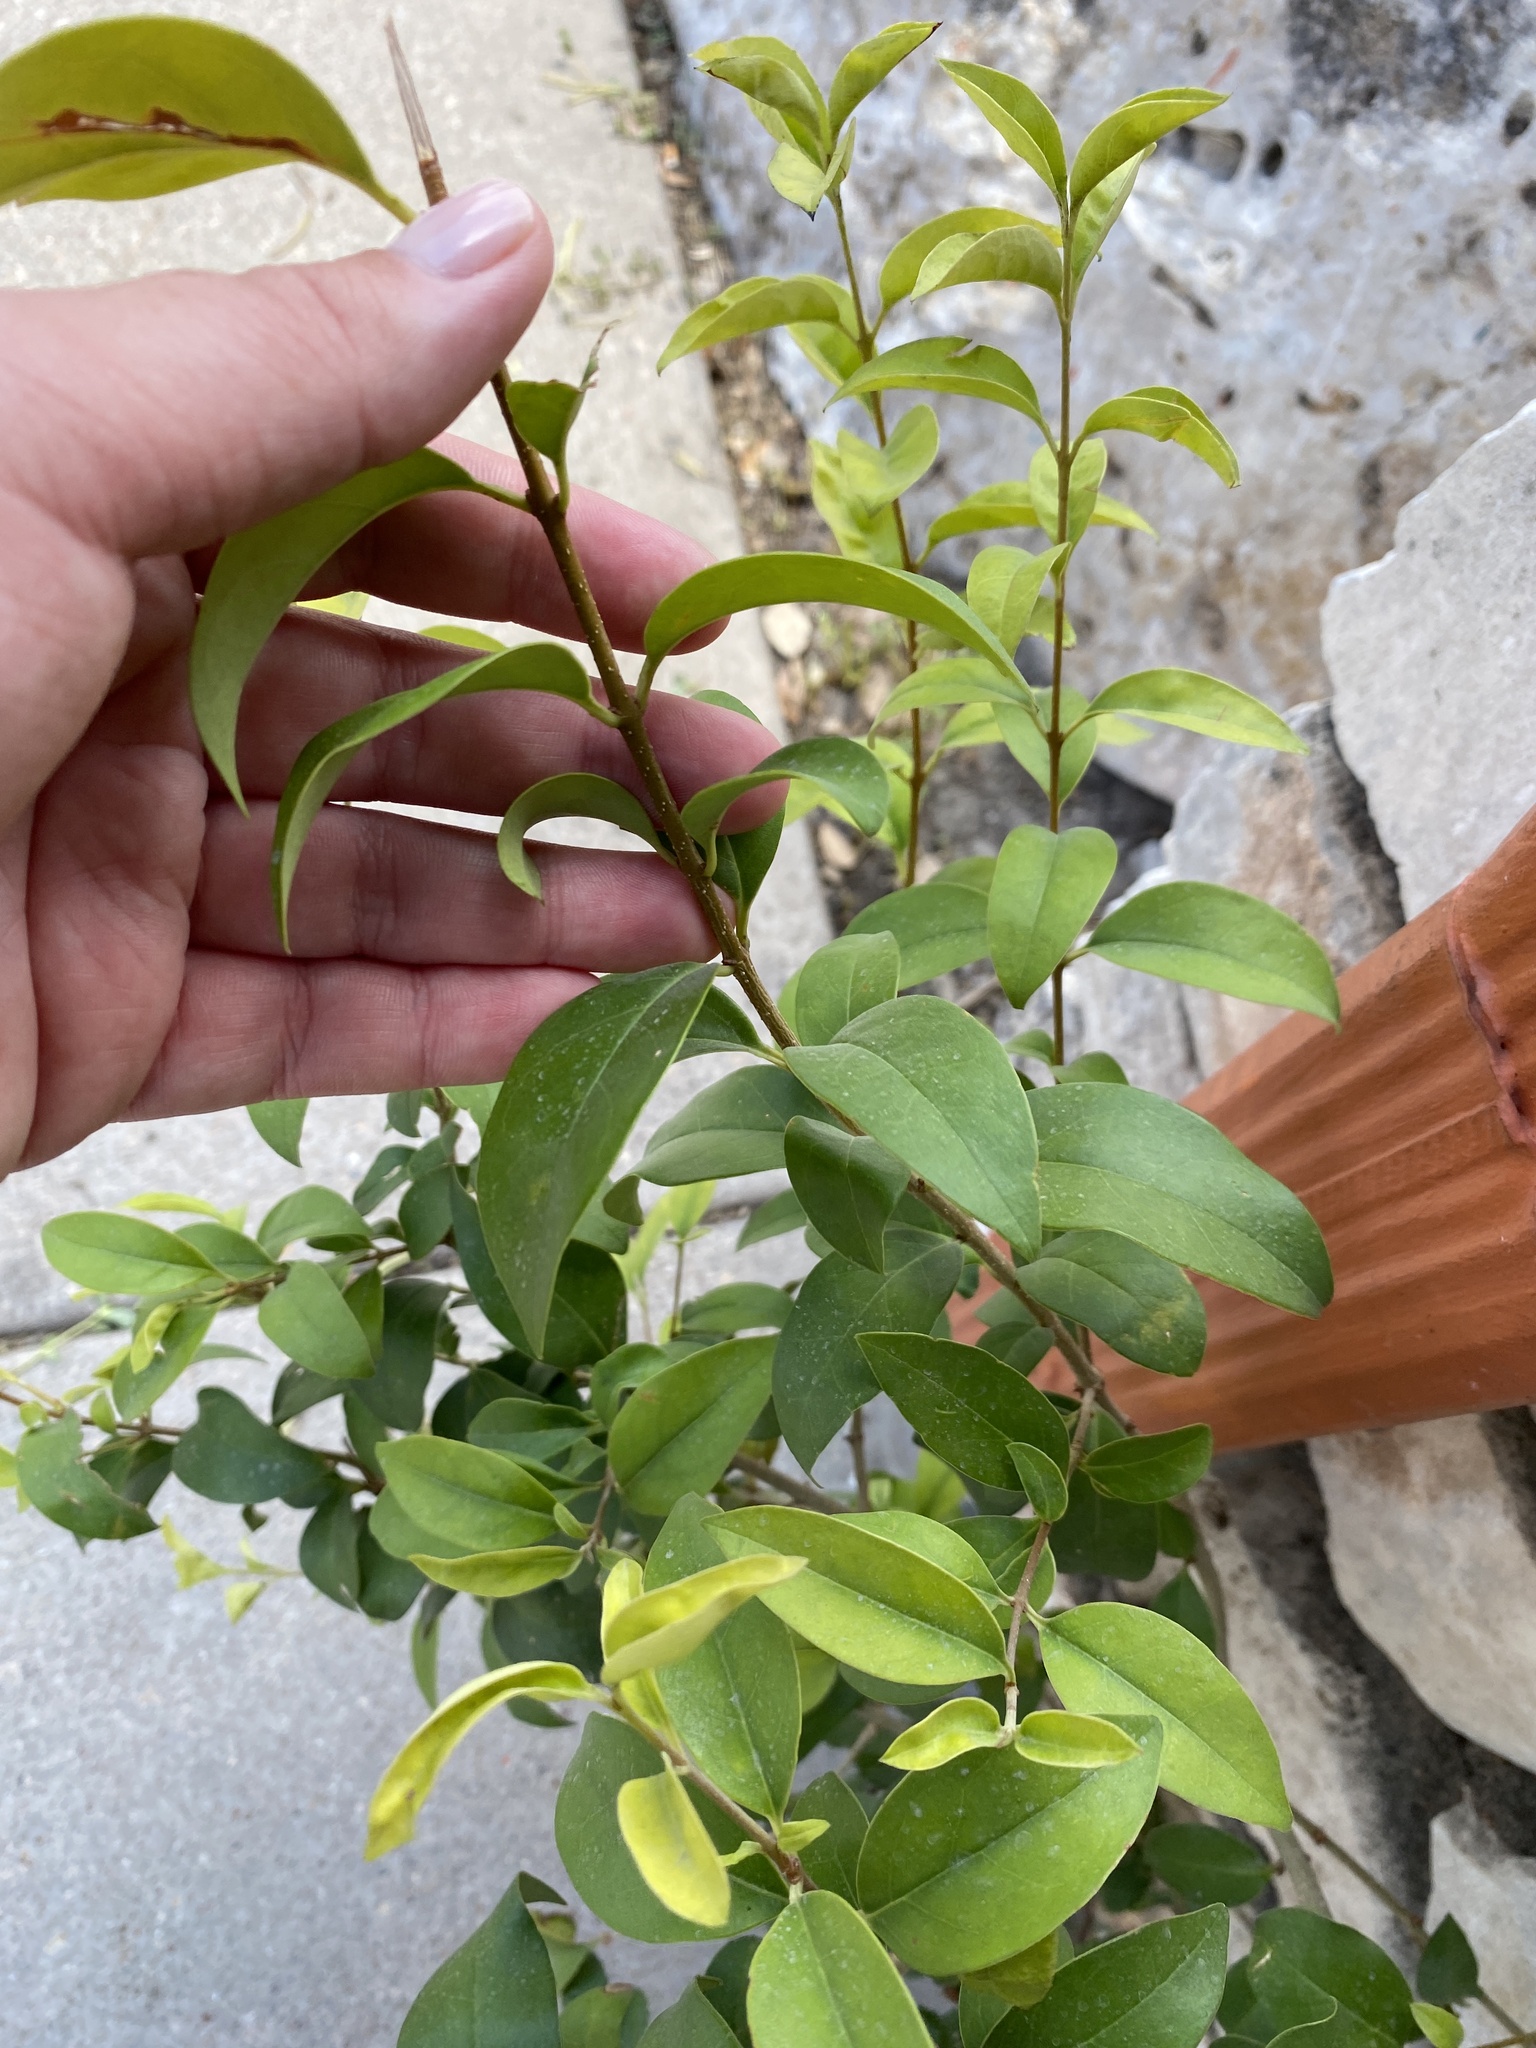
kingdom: Plantae
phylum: Tracheophyta
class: Magnoliopsida
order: Lamiales
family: Oleaceae
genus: Ligustrum
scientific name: Ligustrum lucidum
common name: Glossy privet
